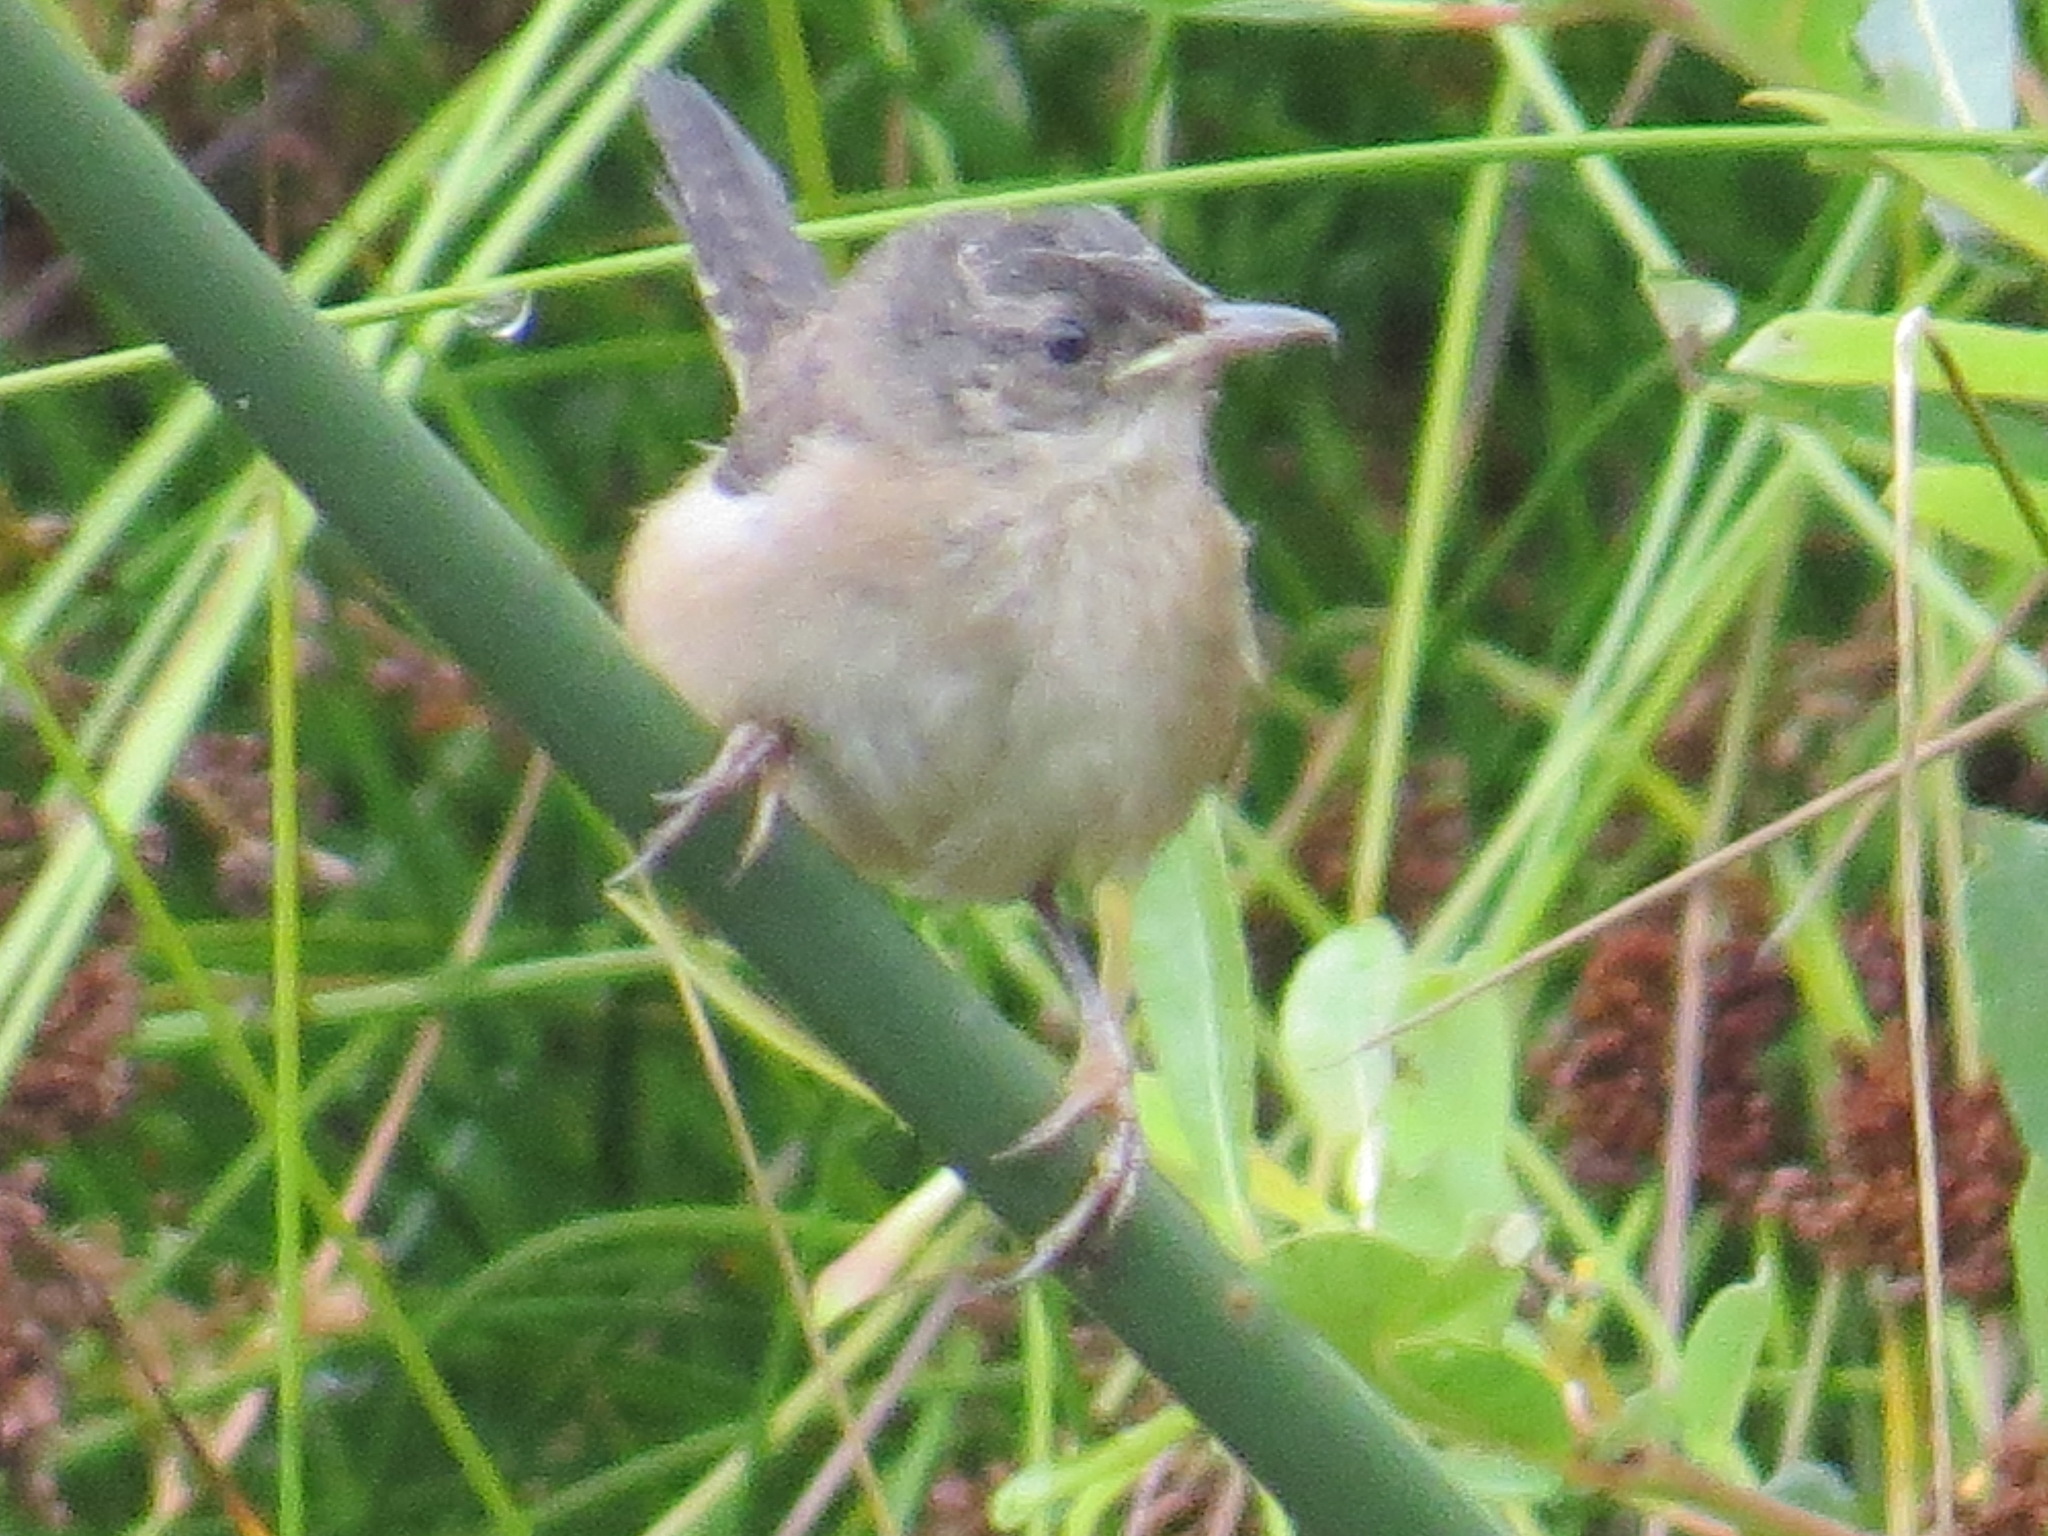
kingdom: Animalia
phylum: Chordata
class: Aves
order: Passeriformes
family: Troglodytidae
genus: Cistothorus
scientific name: Cistothorus palustris
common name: Marsh wren
